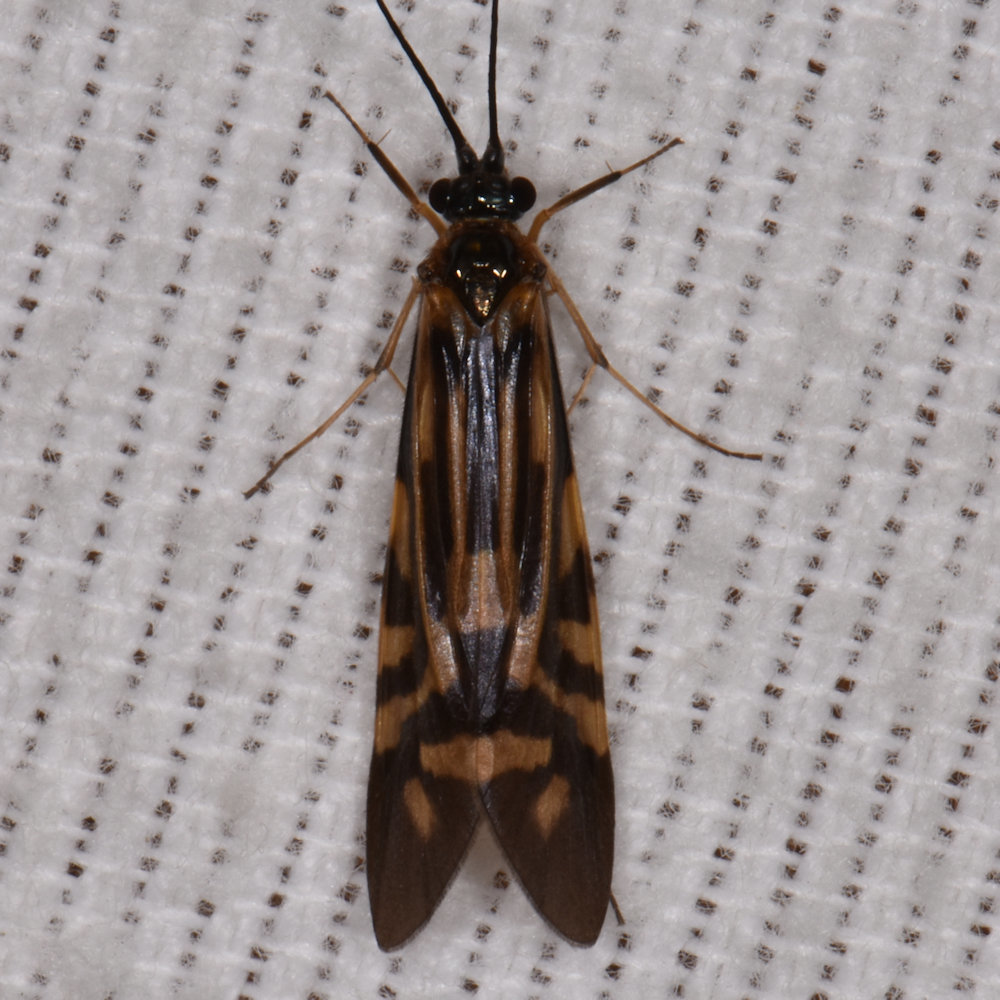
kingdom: Animalia
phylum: Arthropoda
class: Insecta
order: Trichoptera
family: Hydropsychidae
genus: Macrostemum
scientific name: Macrostemum zebratum
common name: Zebra caddisfly
